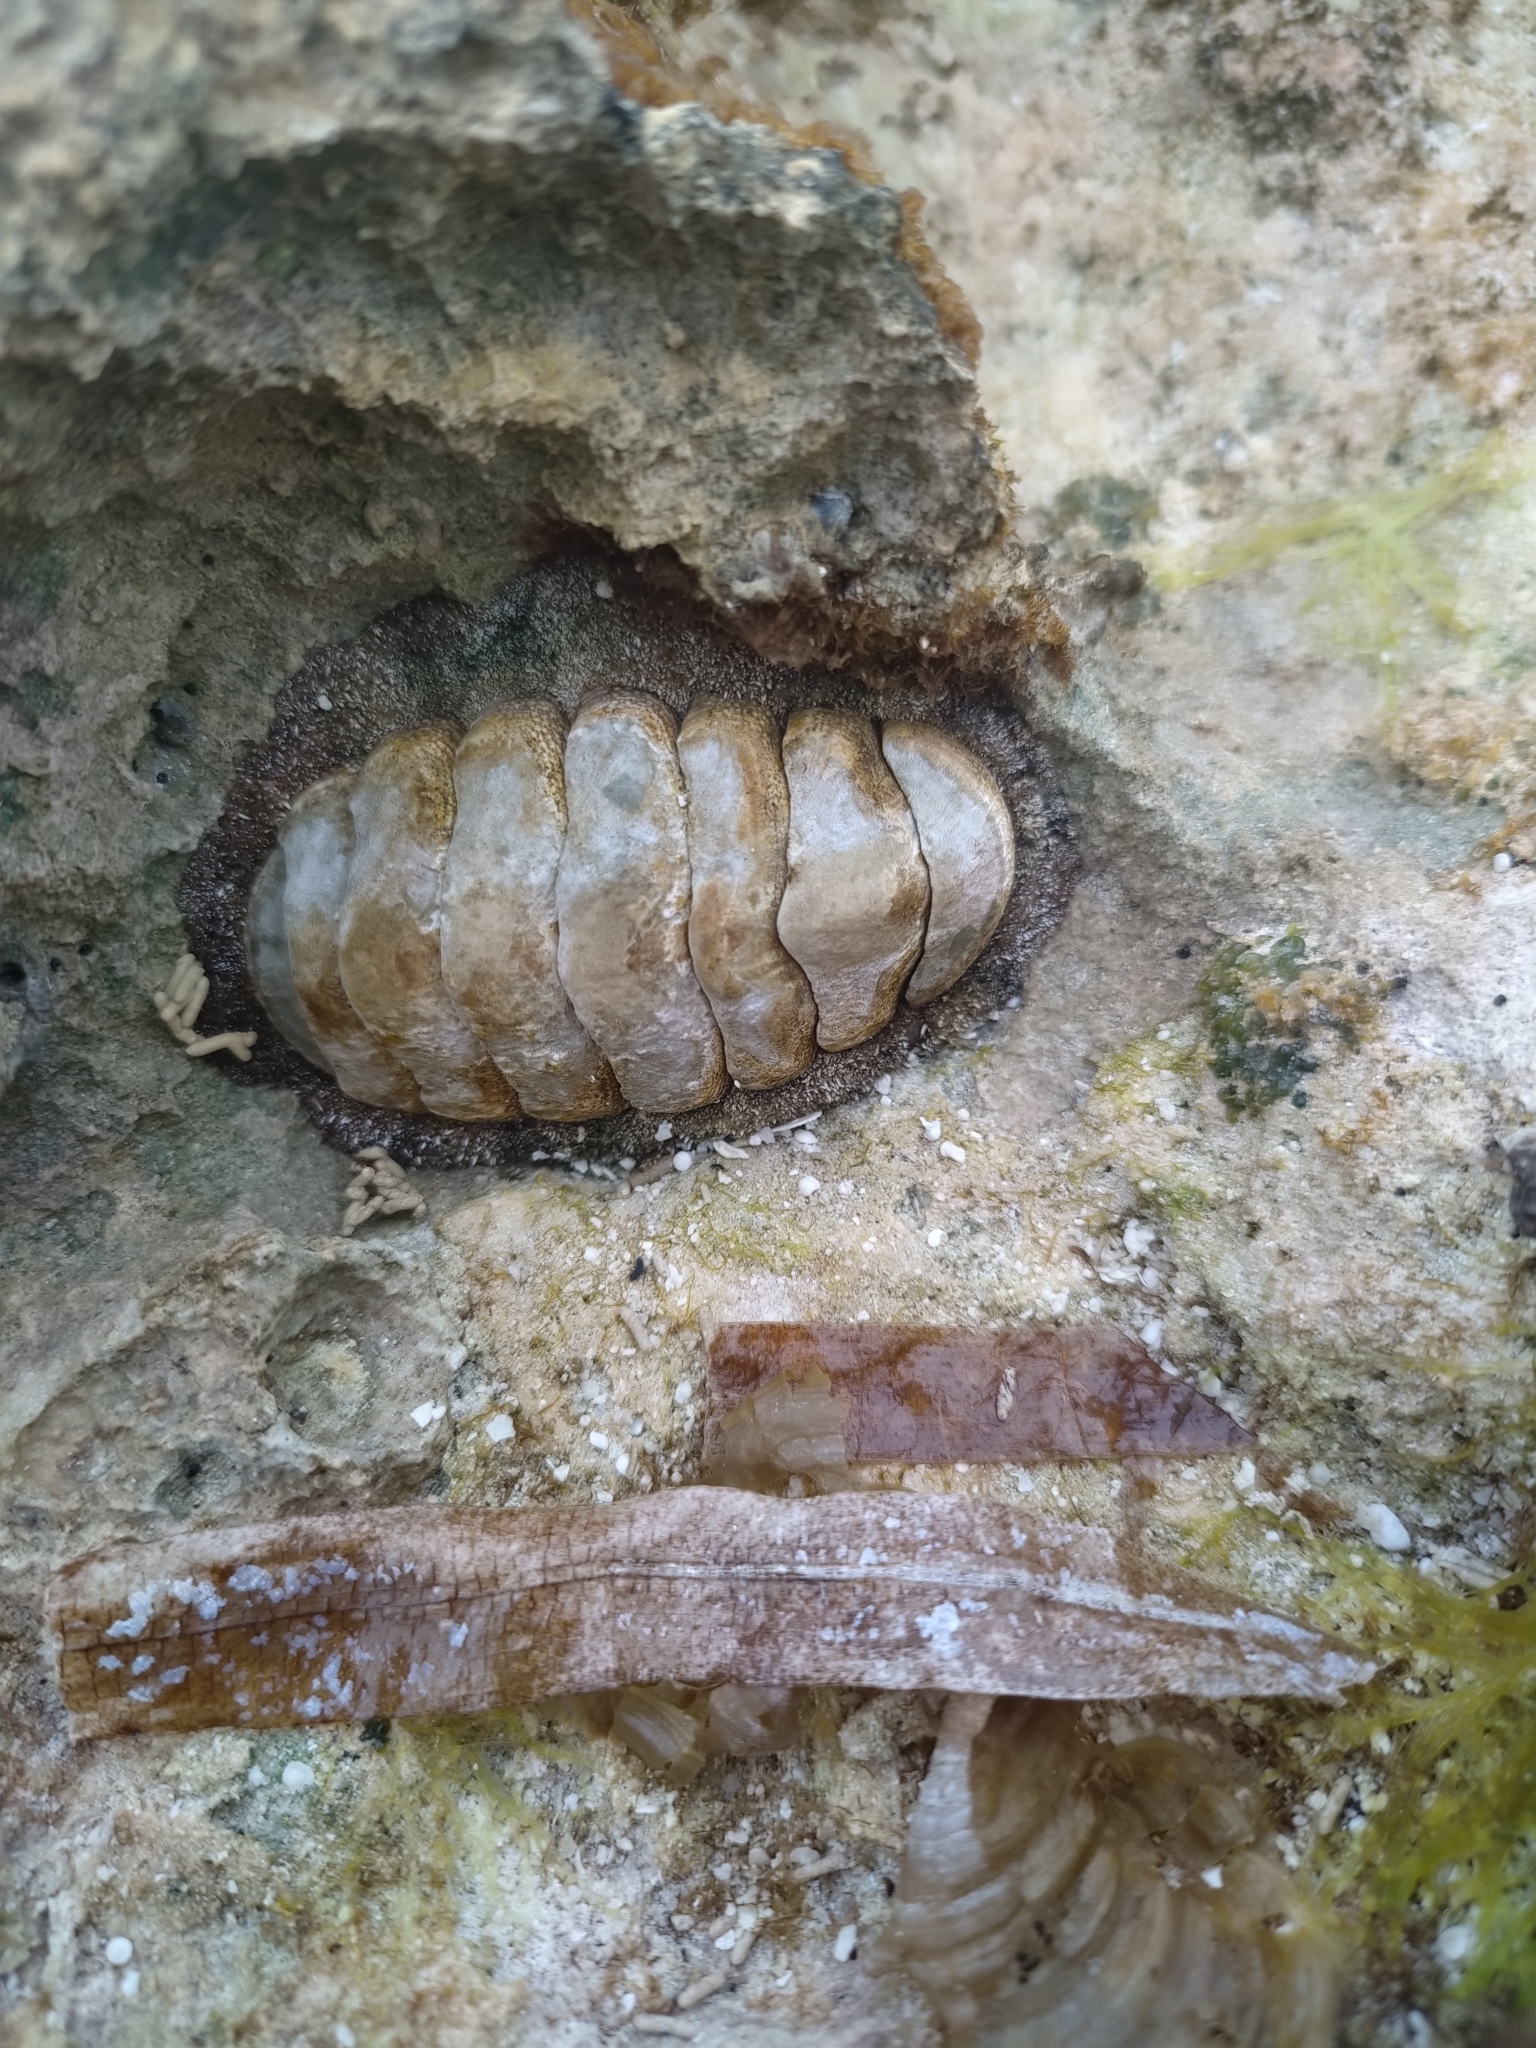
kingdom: Animalia
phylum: Mollusca
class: Polyplacophora
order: Chitonida
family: Chitonidae
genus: Acanthopleura
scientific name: Acanthopleura granulata
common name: West indian fuzzy chiton
